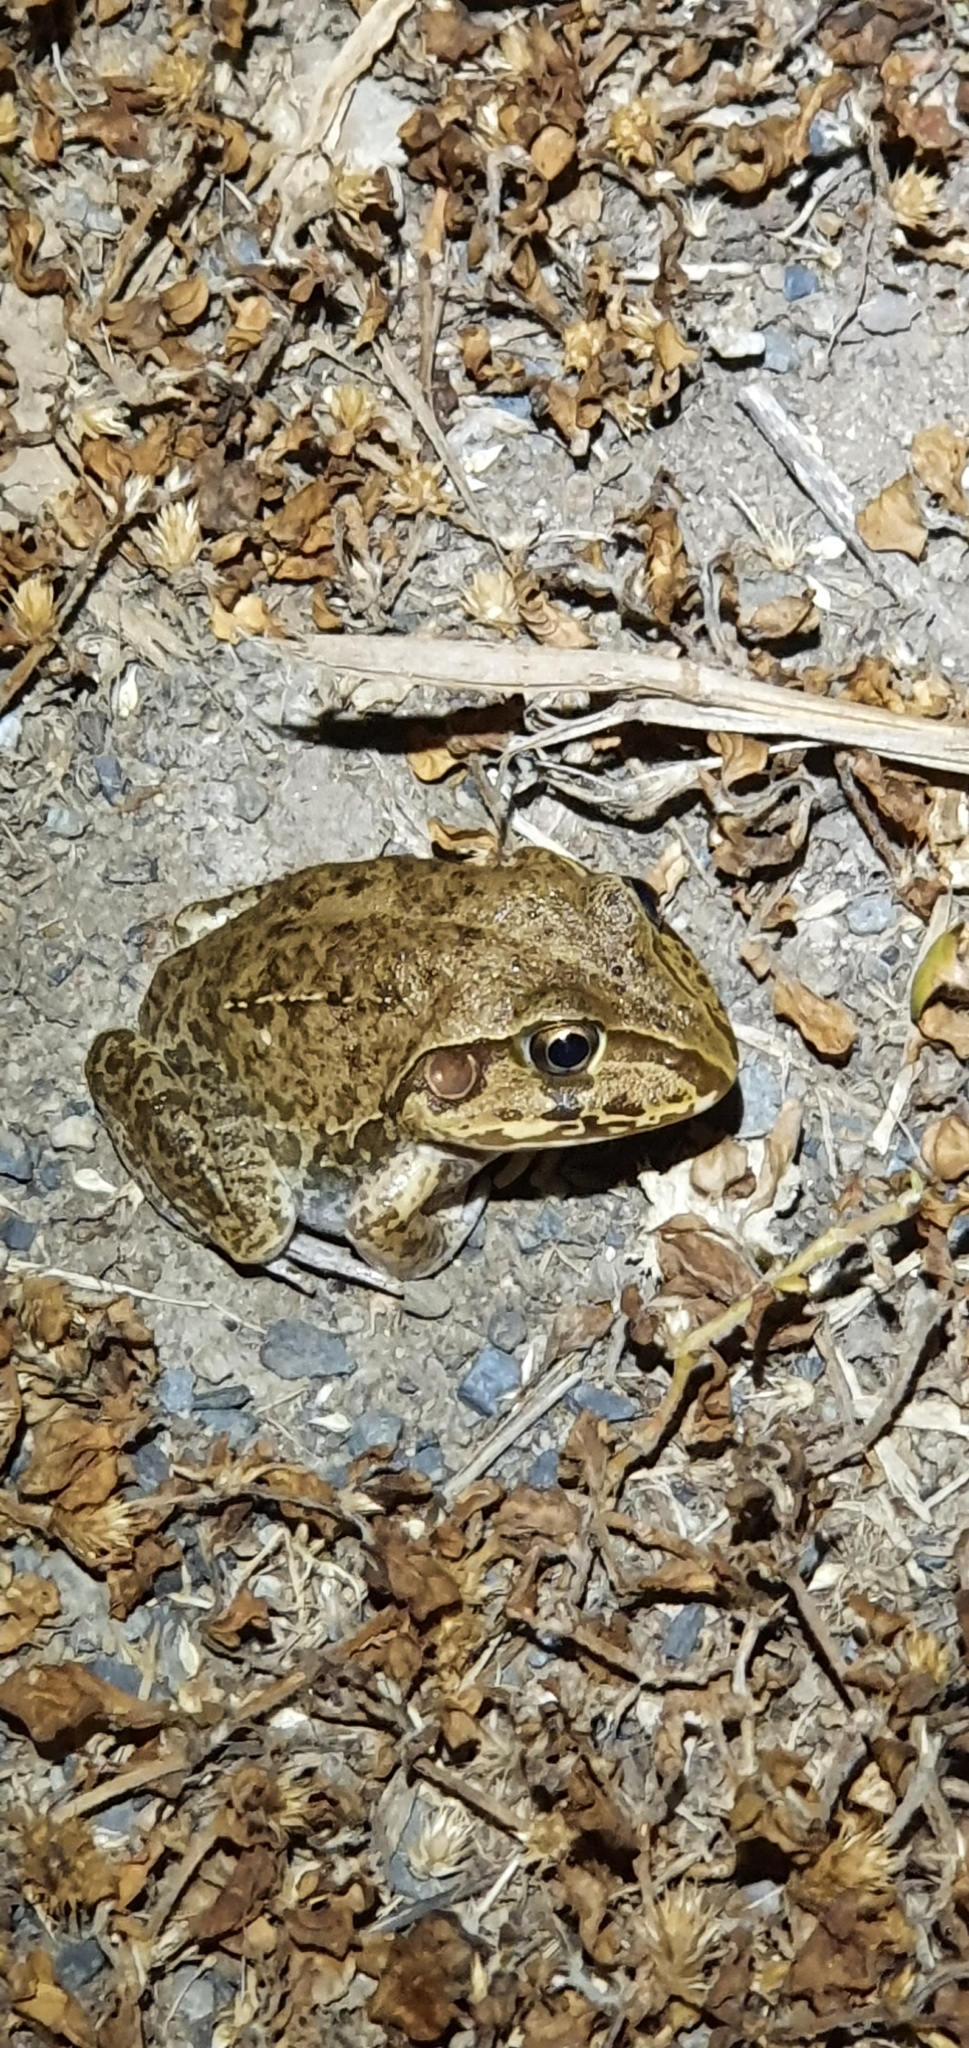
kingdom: Animalia
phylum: Chordata
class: Amphibia
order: Anura
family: Pelodryadidae
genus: Ranoidea
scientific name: Ranoidea novaehollandiae
